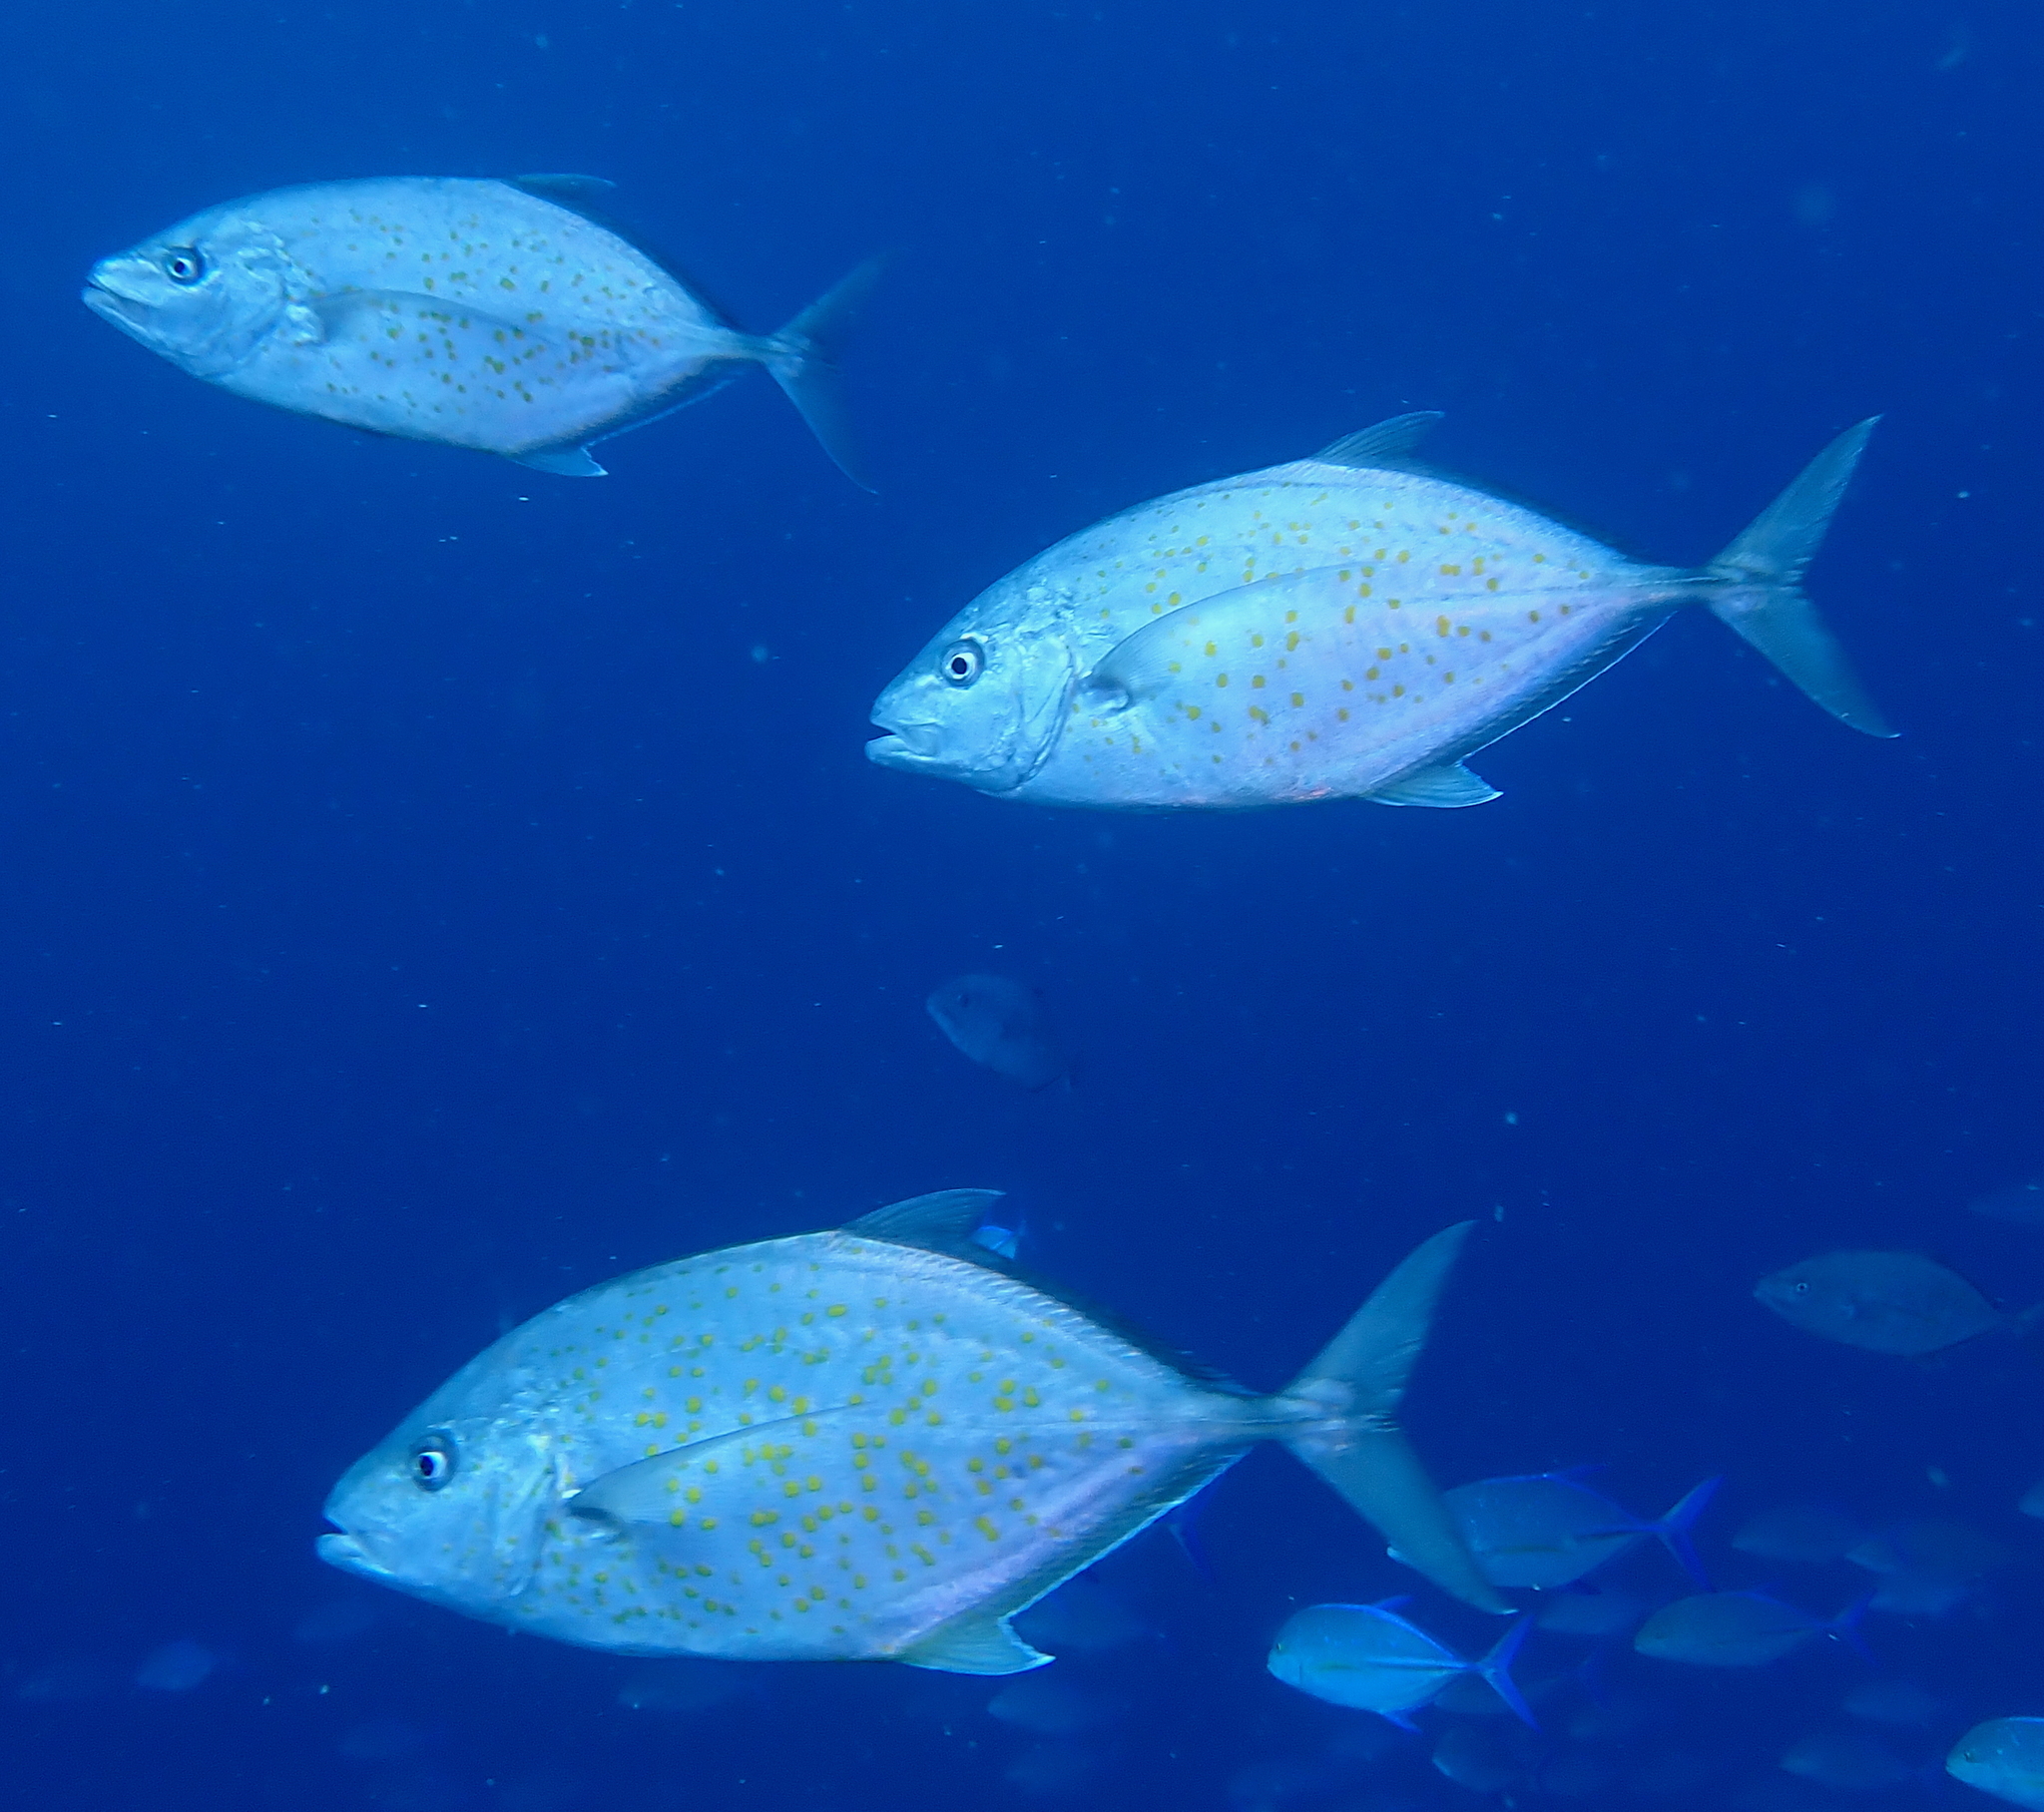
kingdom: Animalia
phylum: Chordata
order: Perciformes
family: Carangidae
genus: Flavocaranx
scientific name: Flavocaranx bajad
